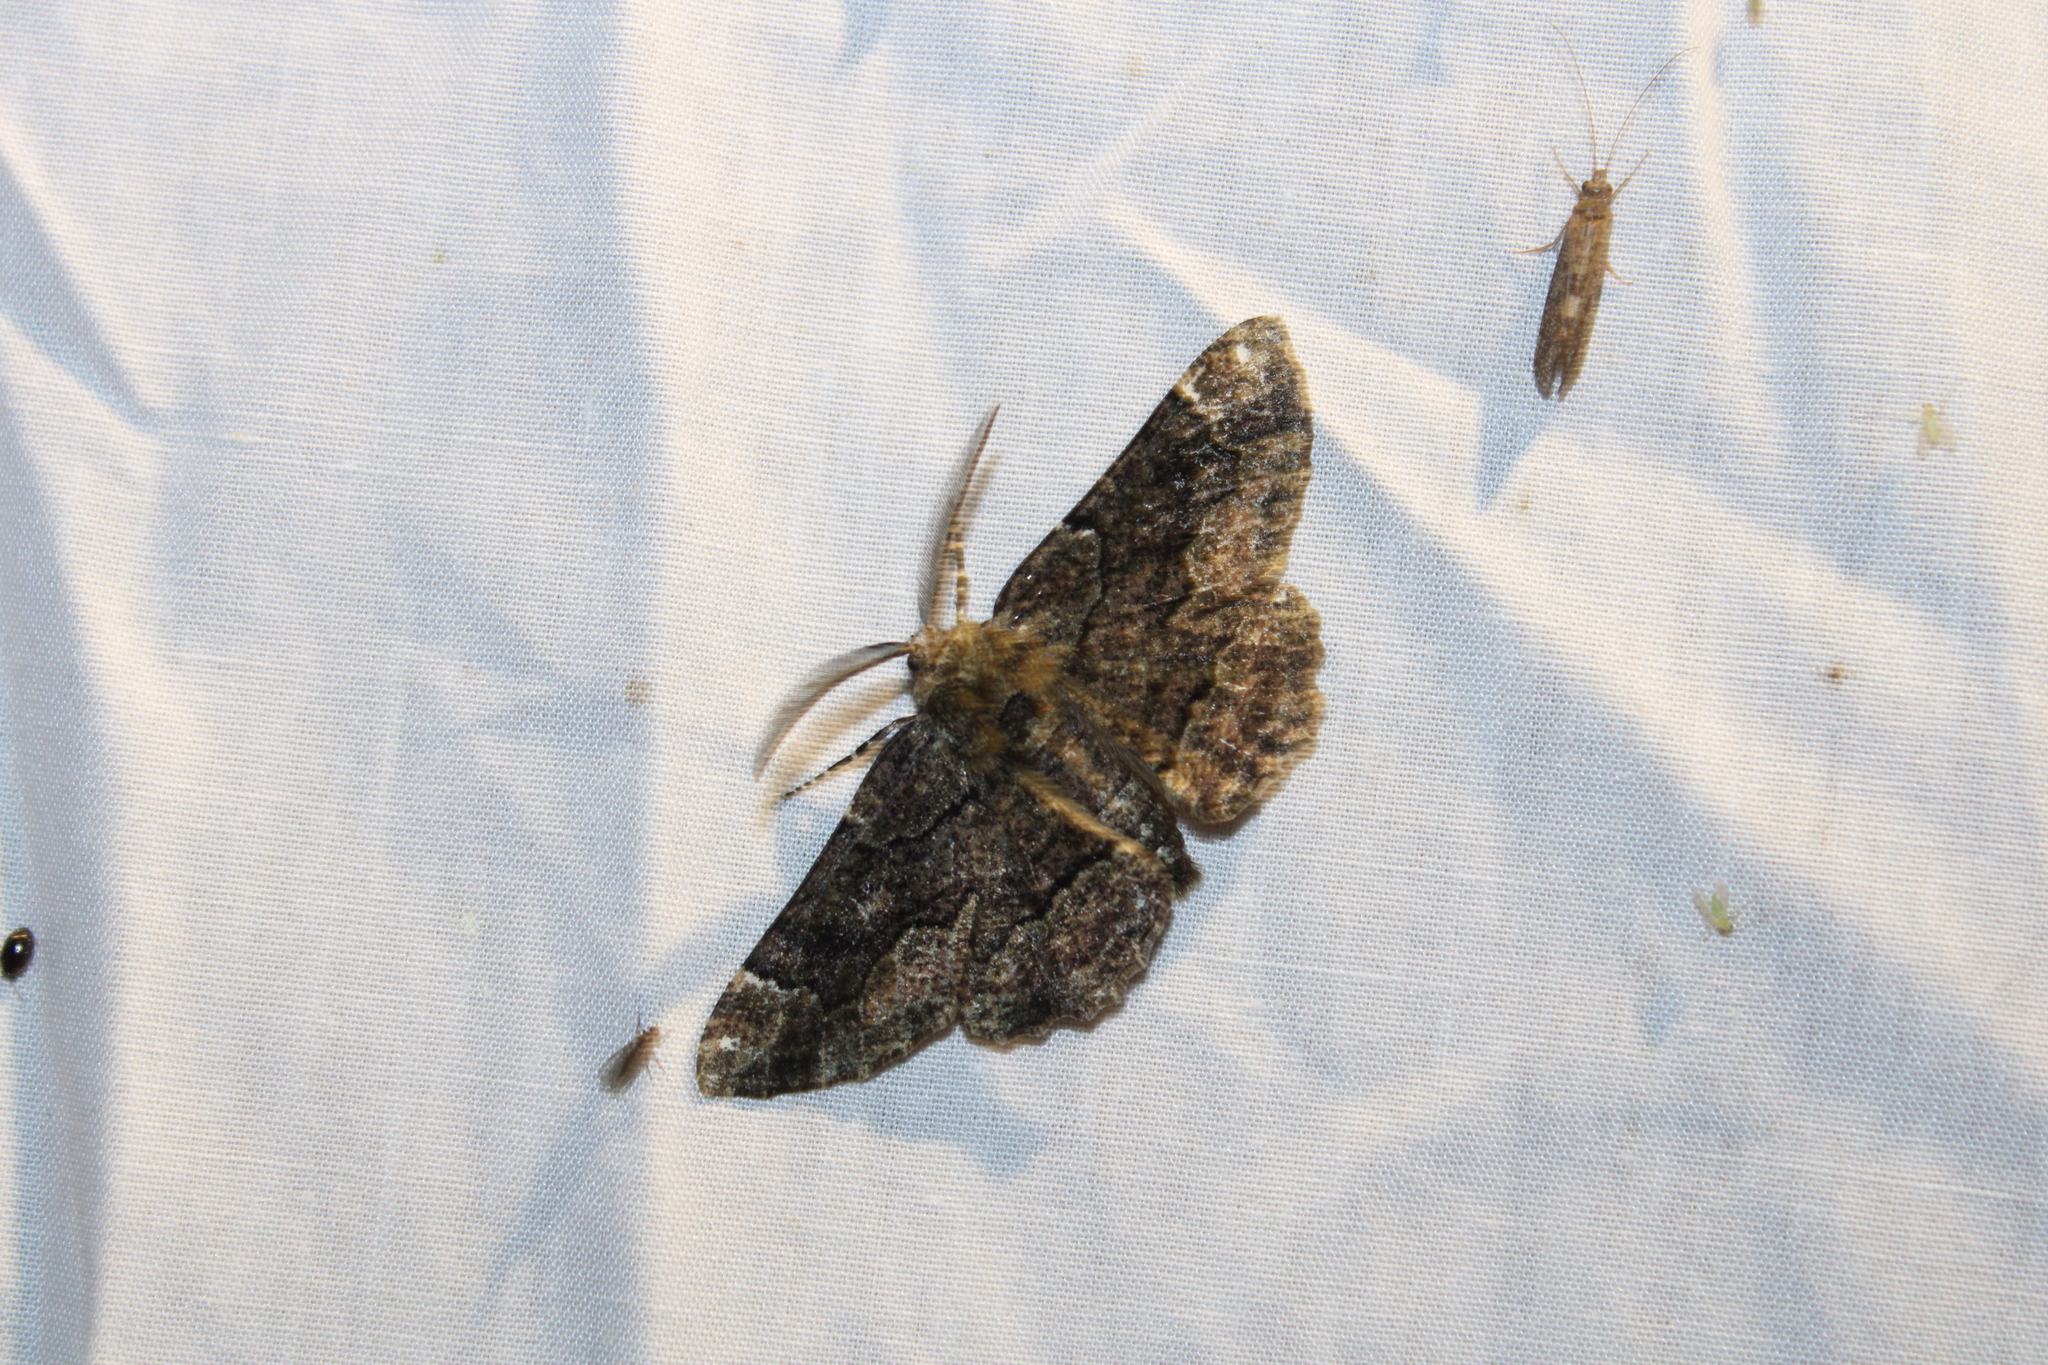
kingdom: Animalia
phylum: Arthropoda
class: Insecta
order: Lepidoptera
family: Geometridae
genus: Phaeoura
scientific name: Phaeoura quernaria
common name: Oak beauty
